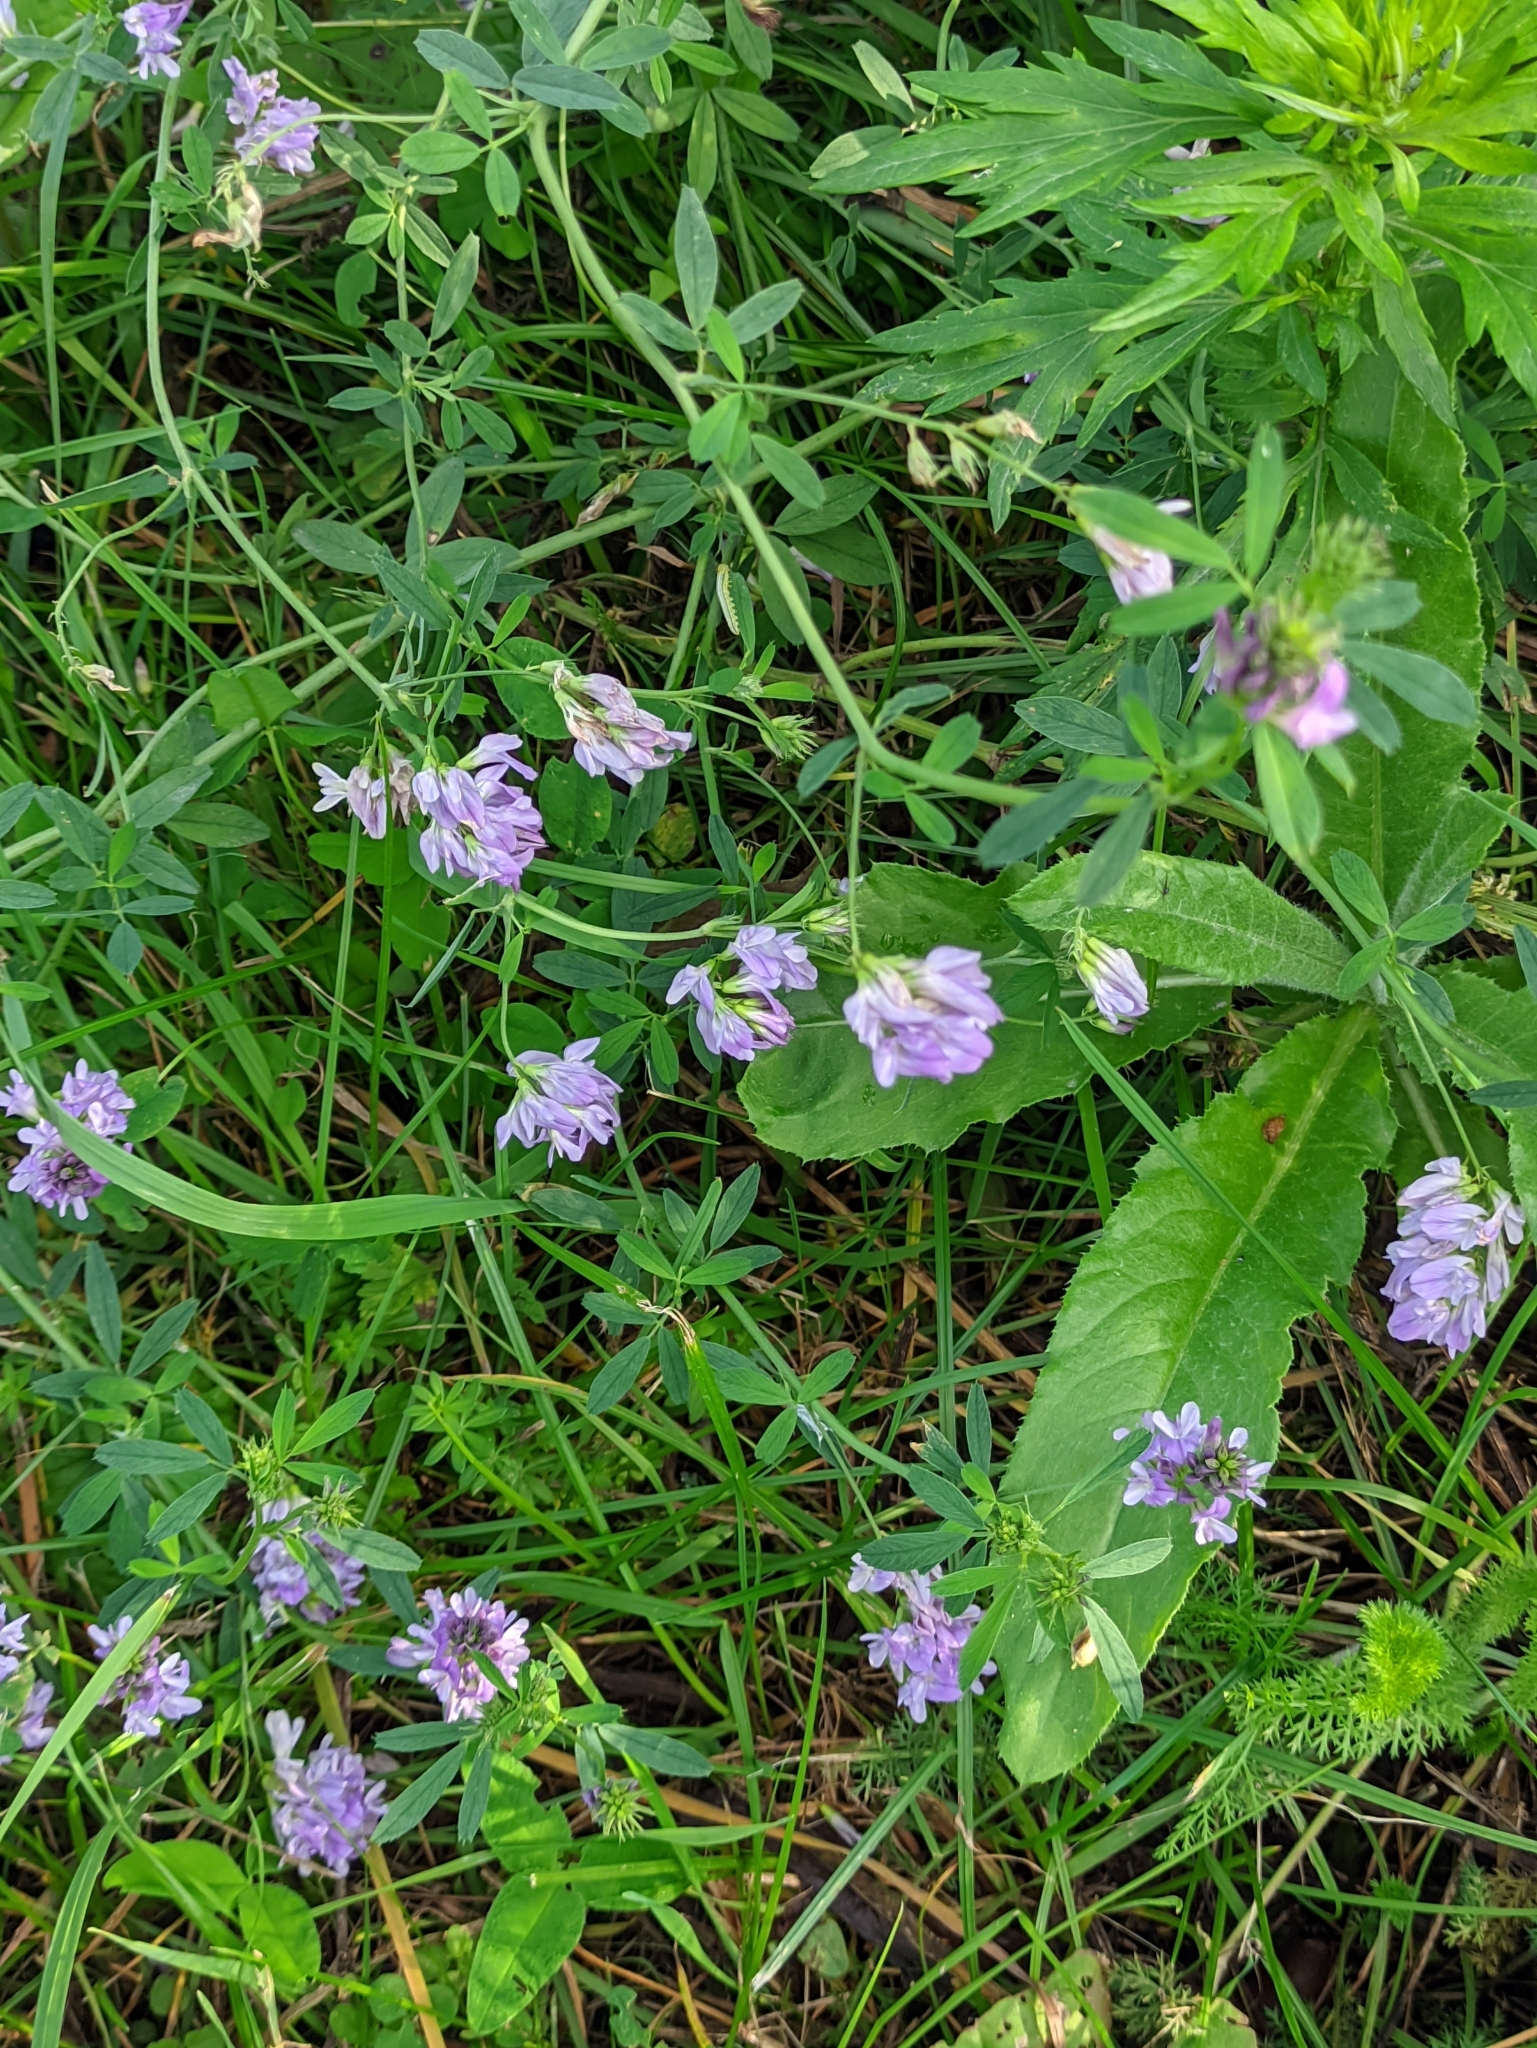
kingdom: Plantae
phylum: Tracheophyta
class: Magnoliopsida
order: Fabales
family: Fabaceae
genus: Medicago
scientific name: Medicago varia
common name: Sand lucerne
